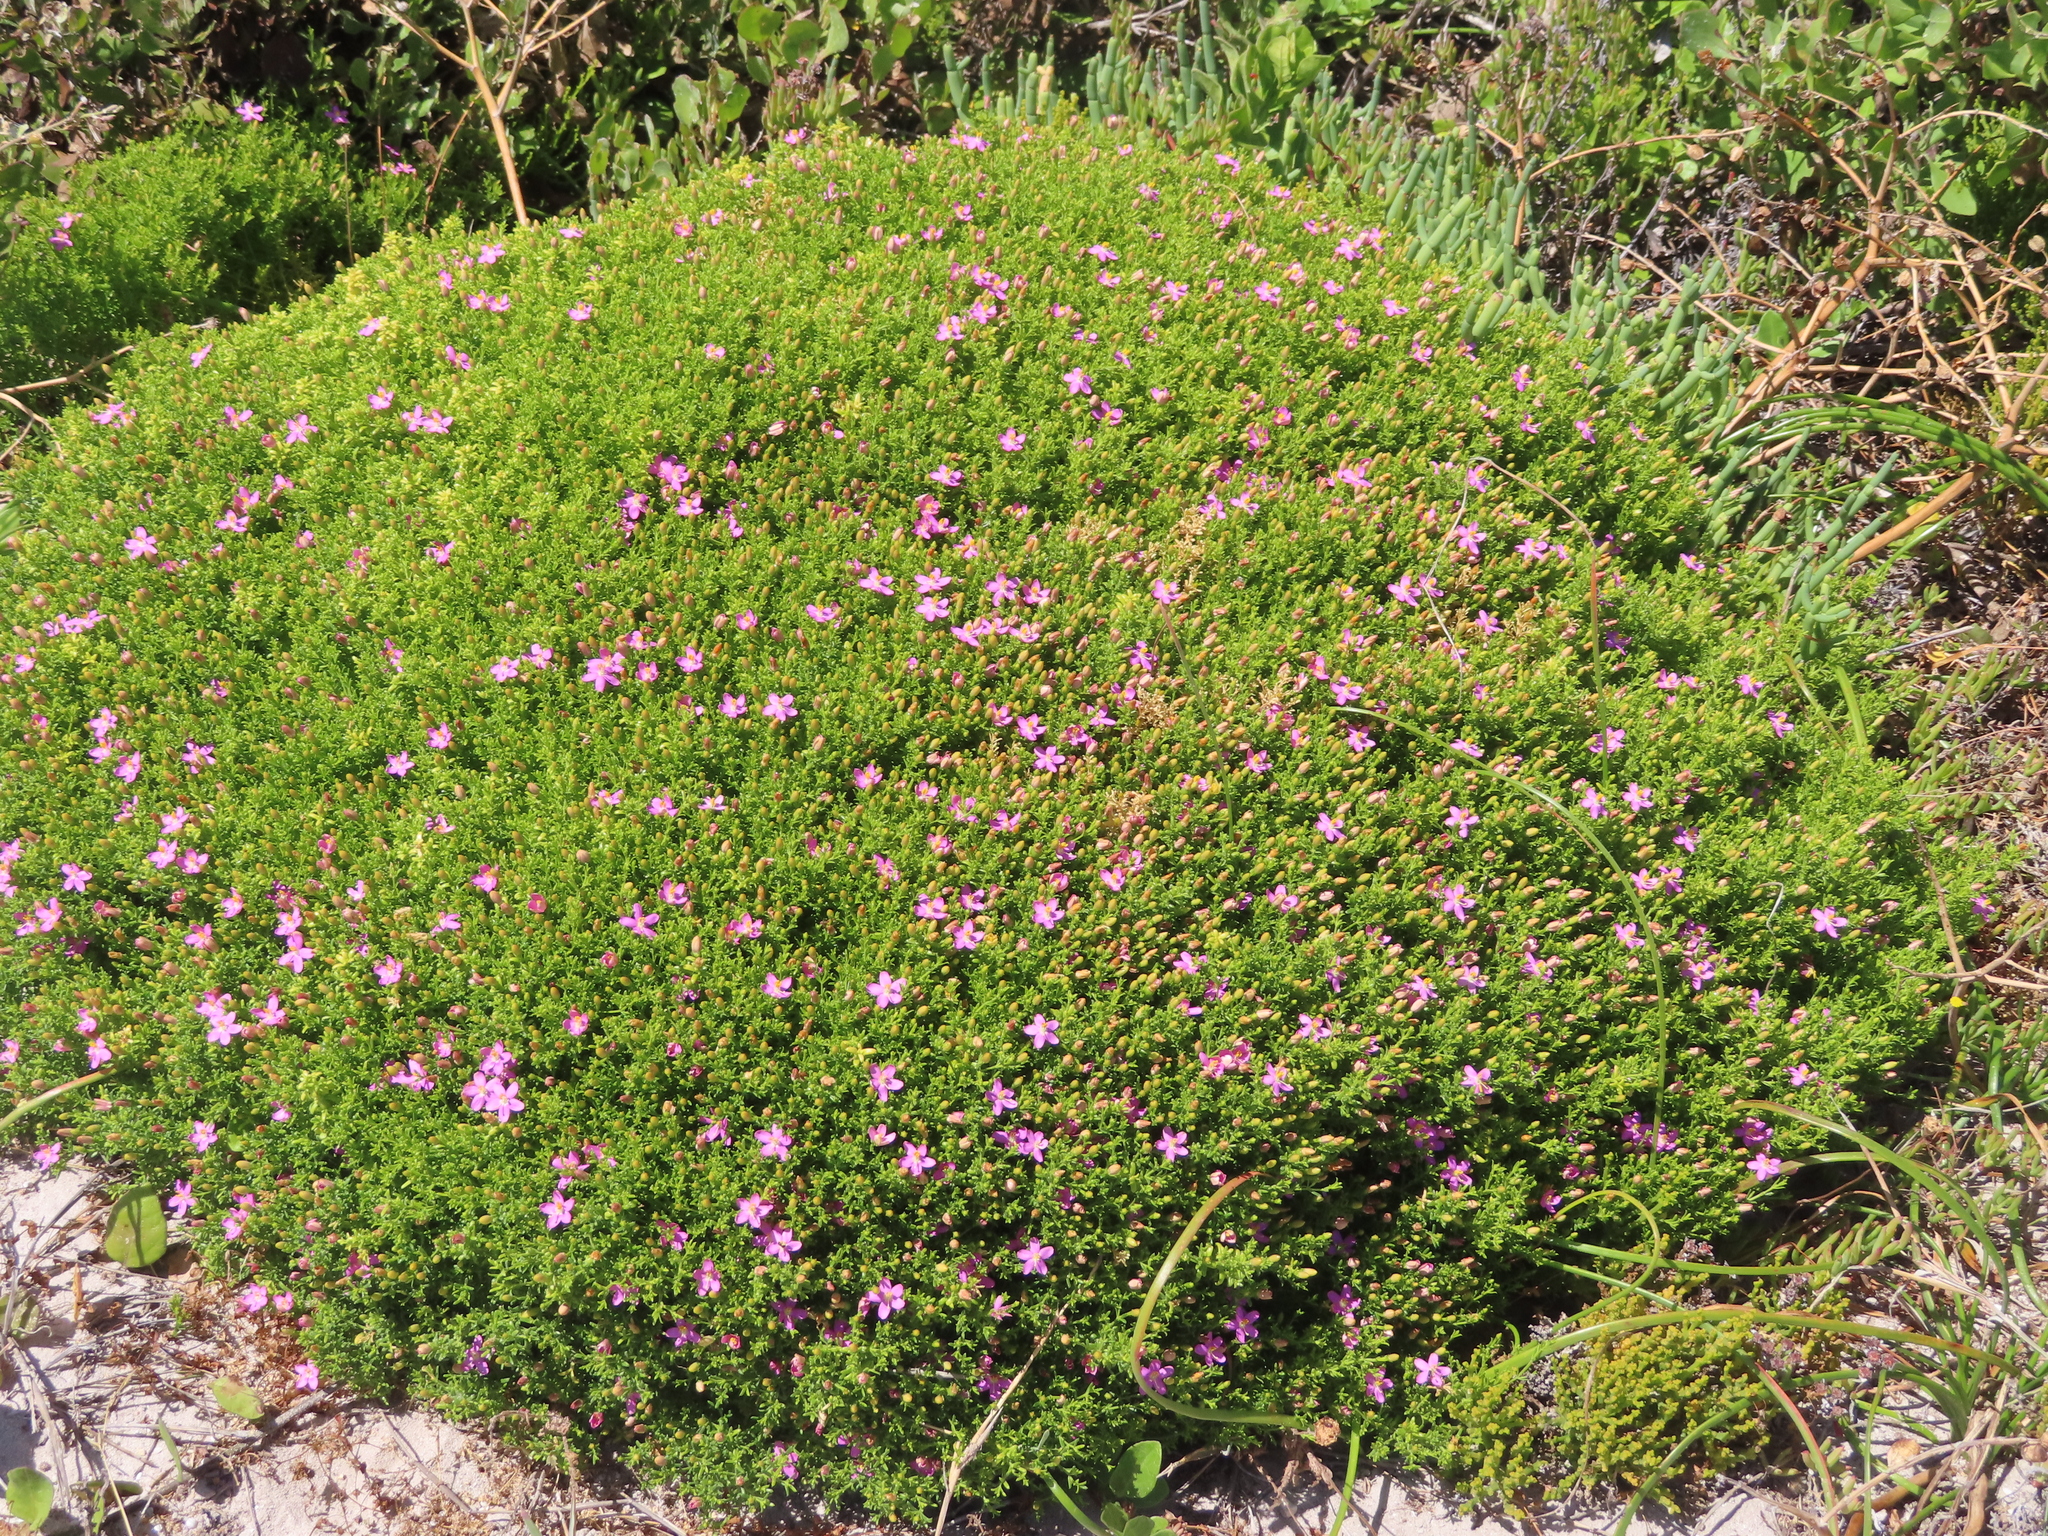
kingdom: Plantae
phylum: Tracheophyta
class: Magnoliopsida
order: Gentianales
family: Gentianaceae
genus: Chironia
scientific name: Chironia baccifera
